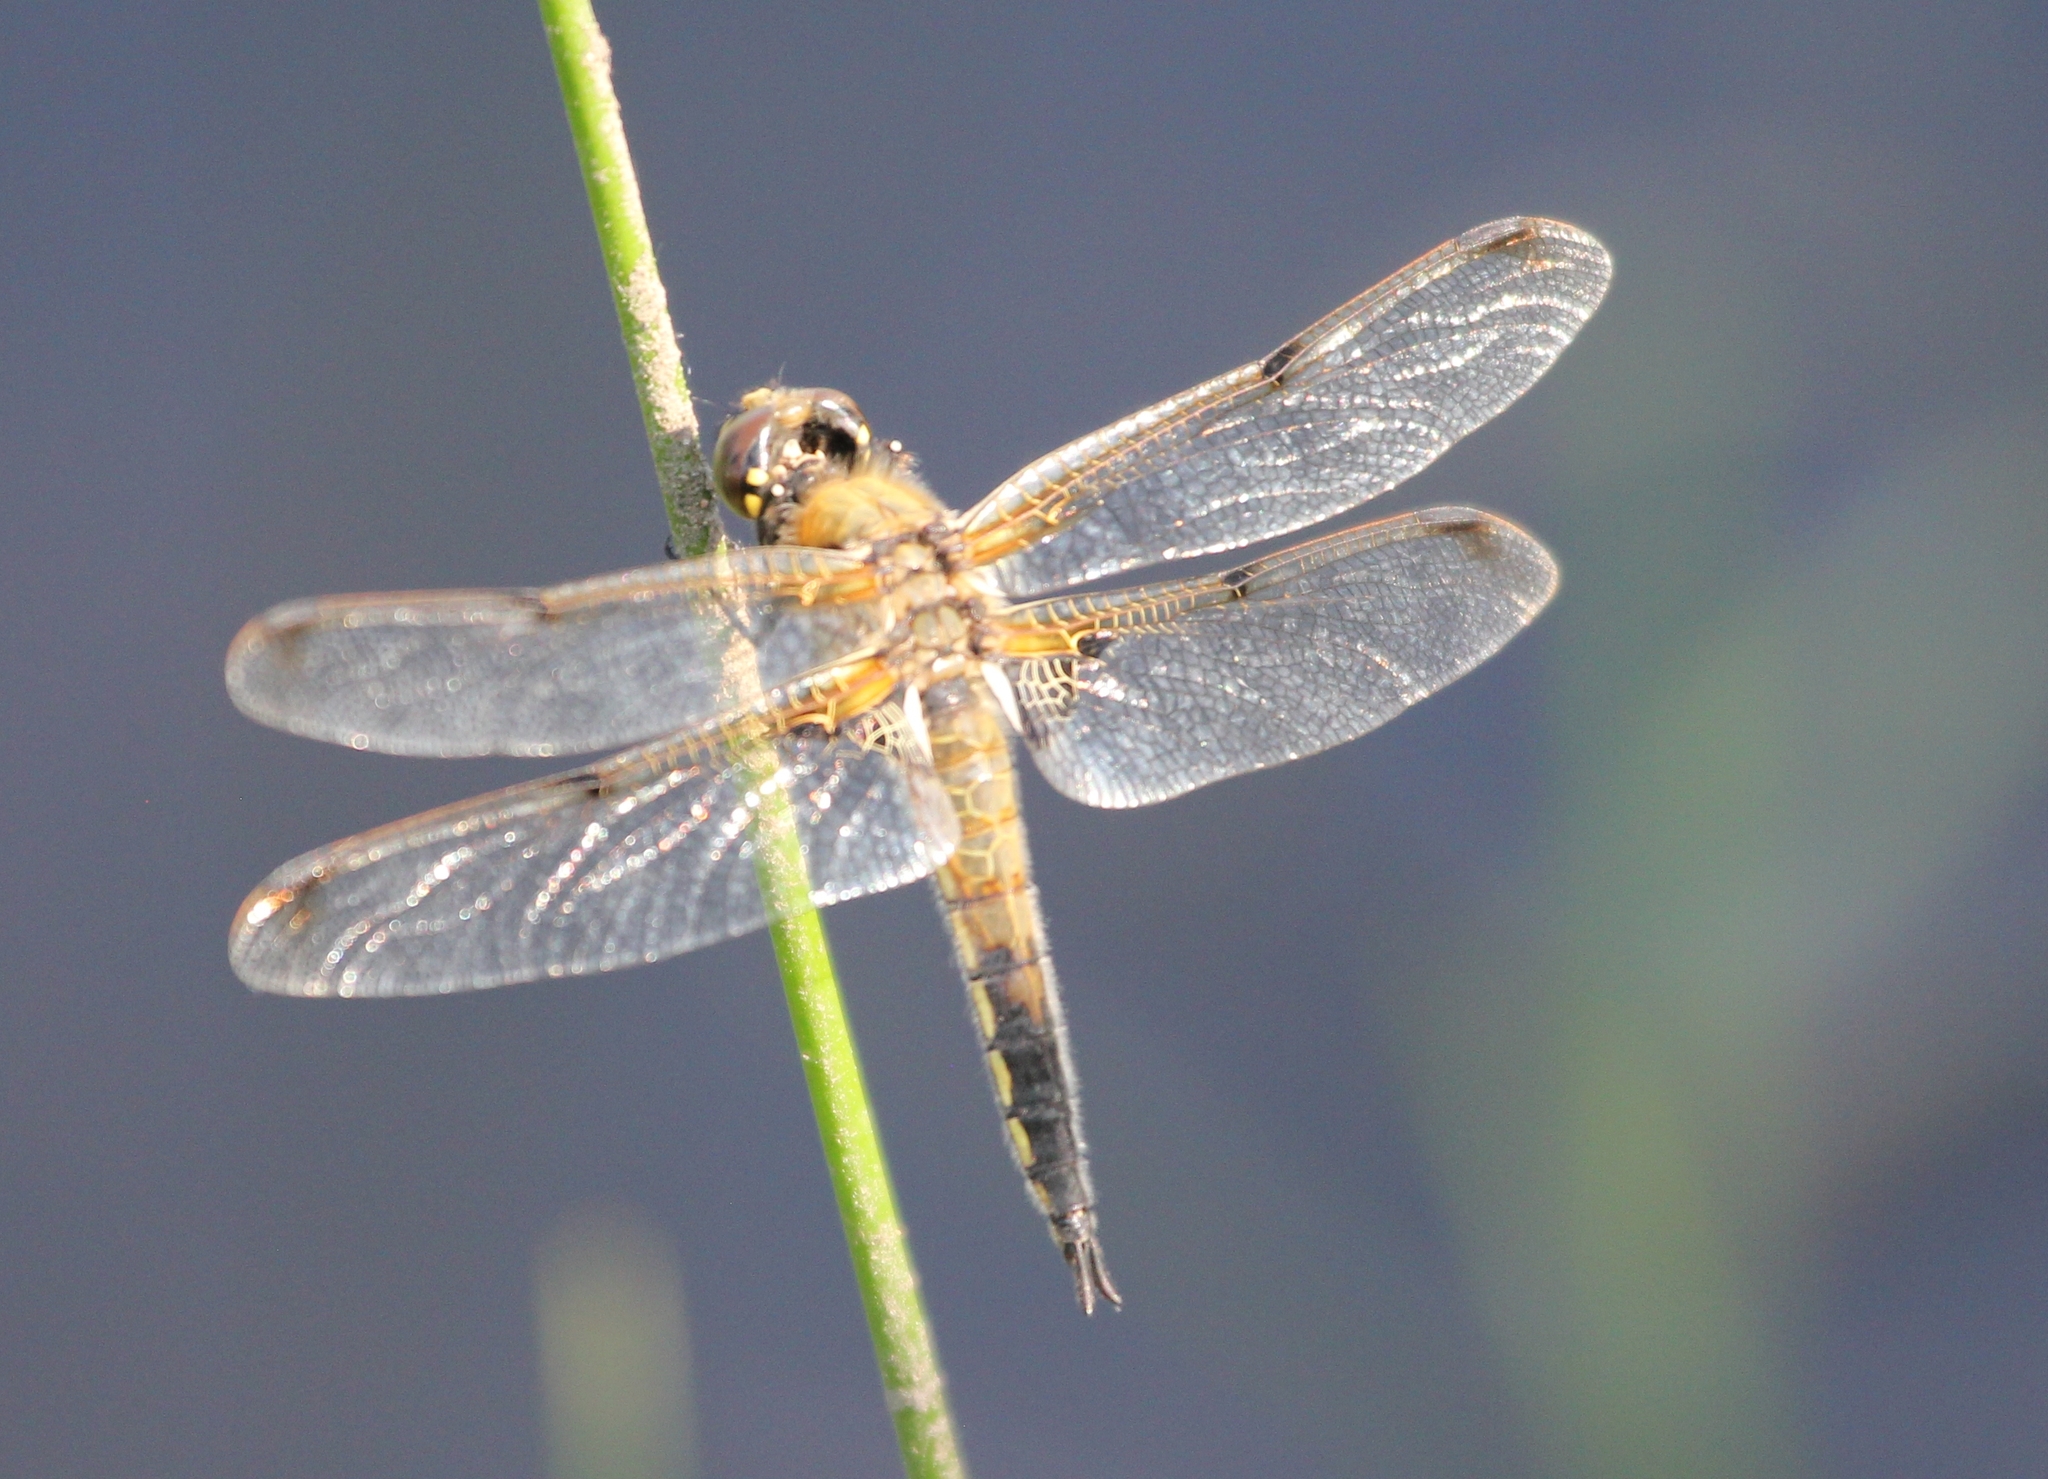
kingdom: Animalia
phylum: Arthropoda
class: Insecta
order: Odonata
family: Libellulidae
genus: Libellula
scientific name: Libellula quadrimaculata
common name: Four-spotted chaser
